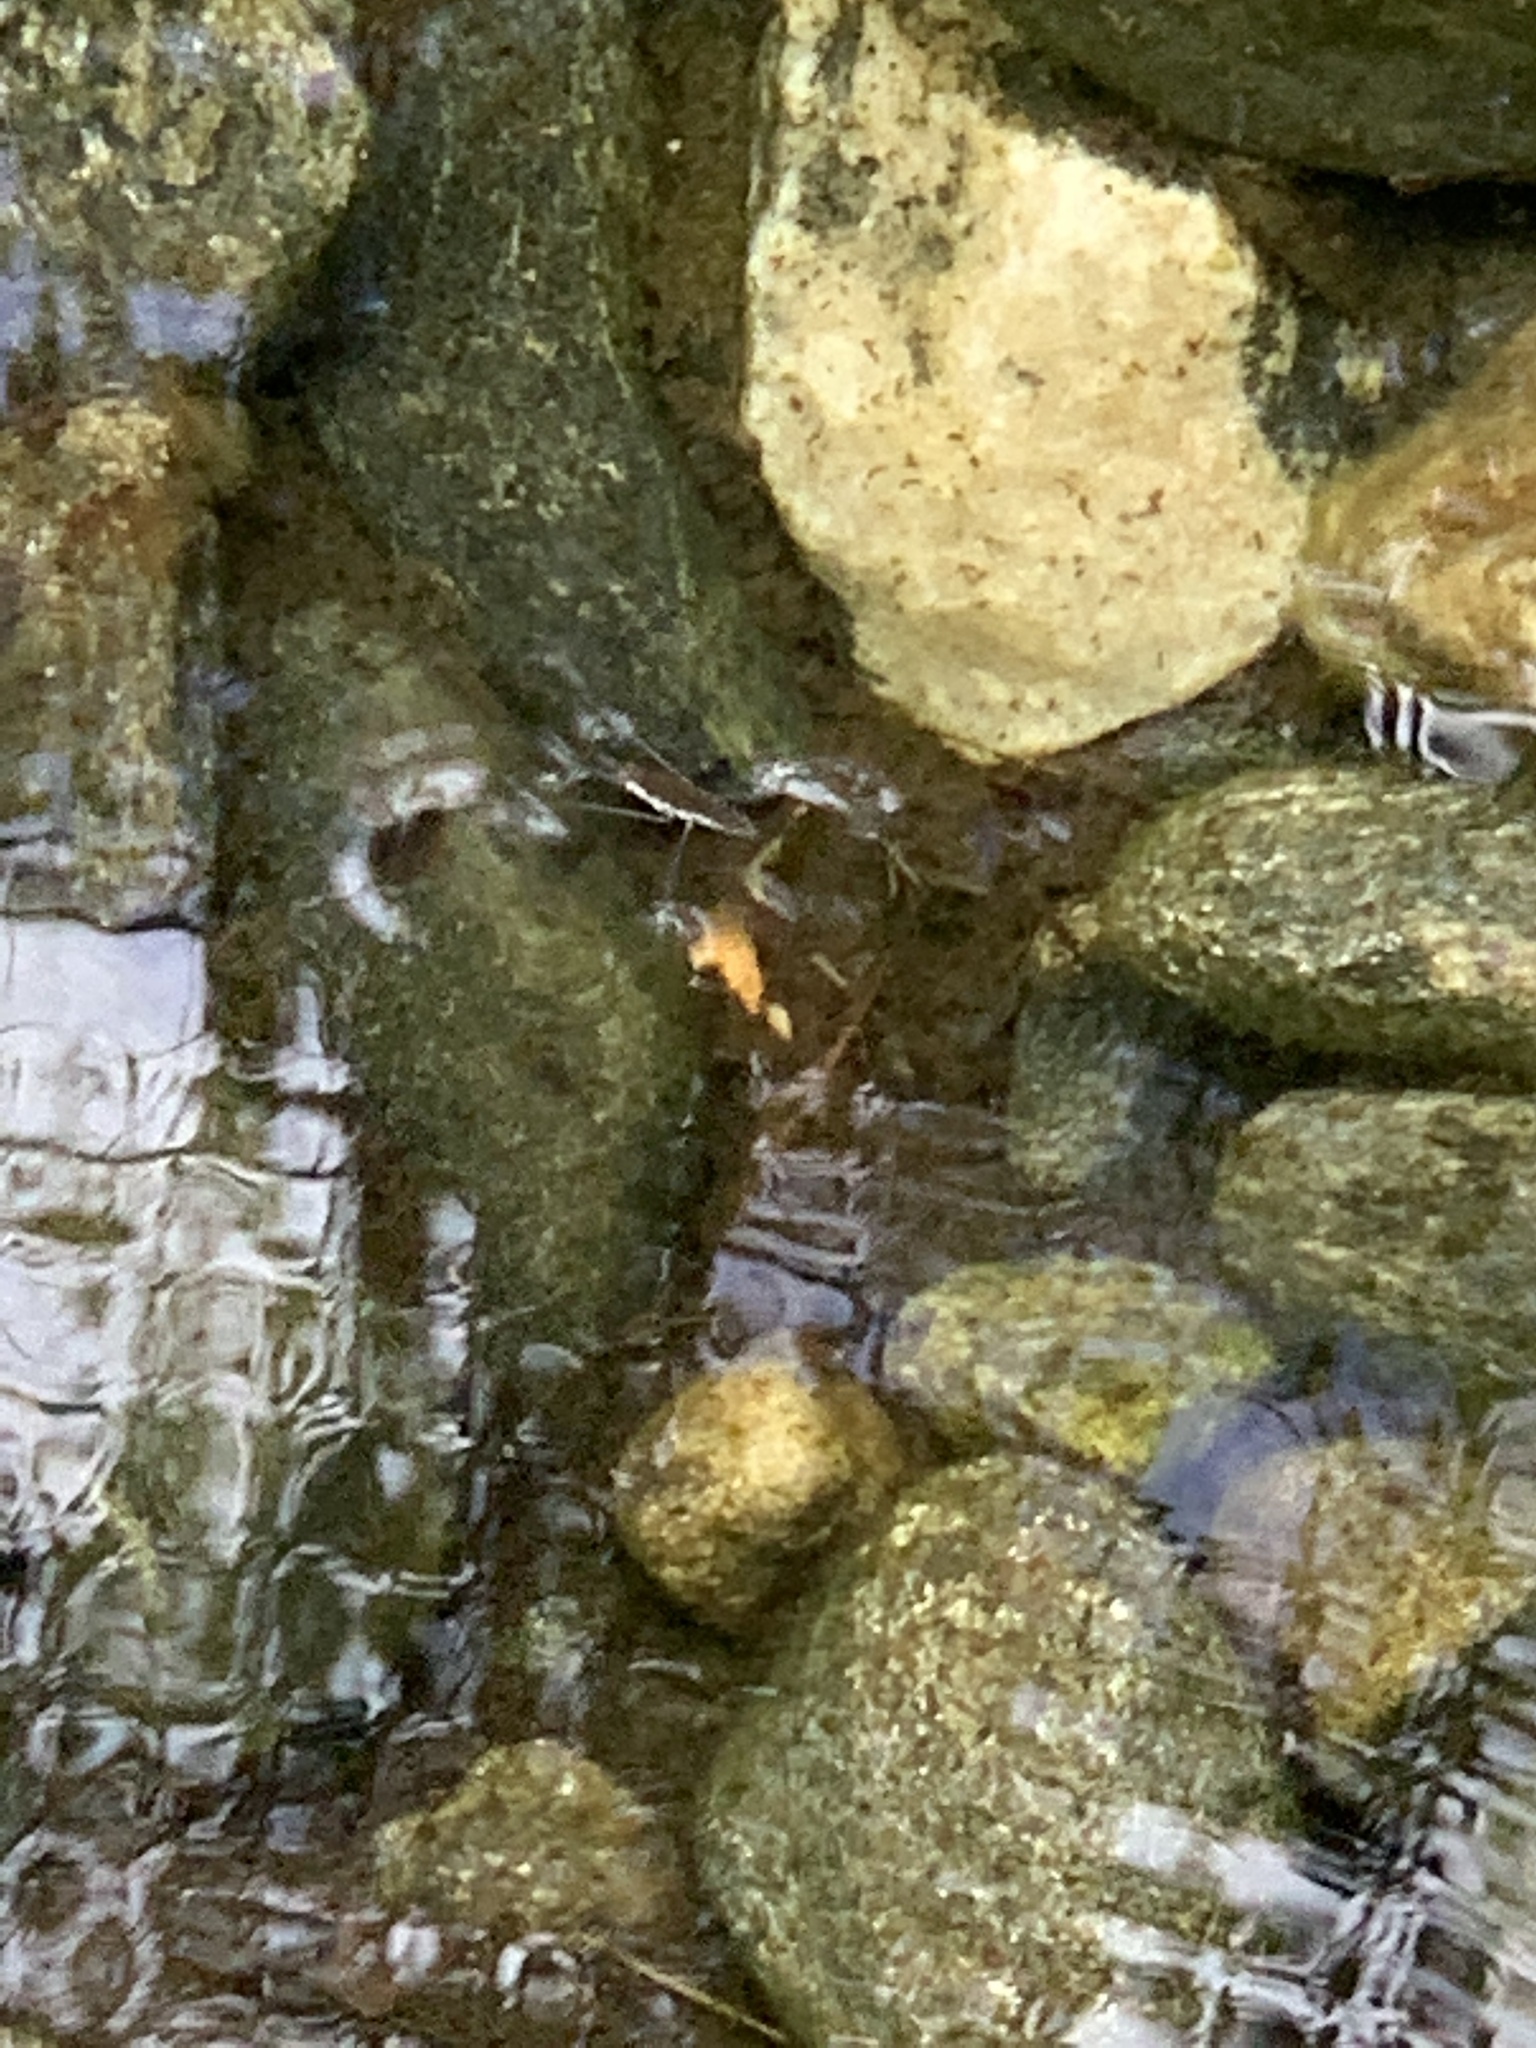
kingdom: Animalia
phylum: Arthropoda
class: Insecta
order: Hemiptera
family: Gerridae
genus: Aquarius
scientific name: Aquarius remigis
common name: Common water strider
